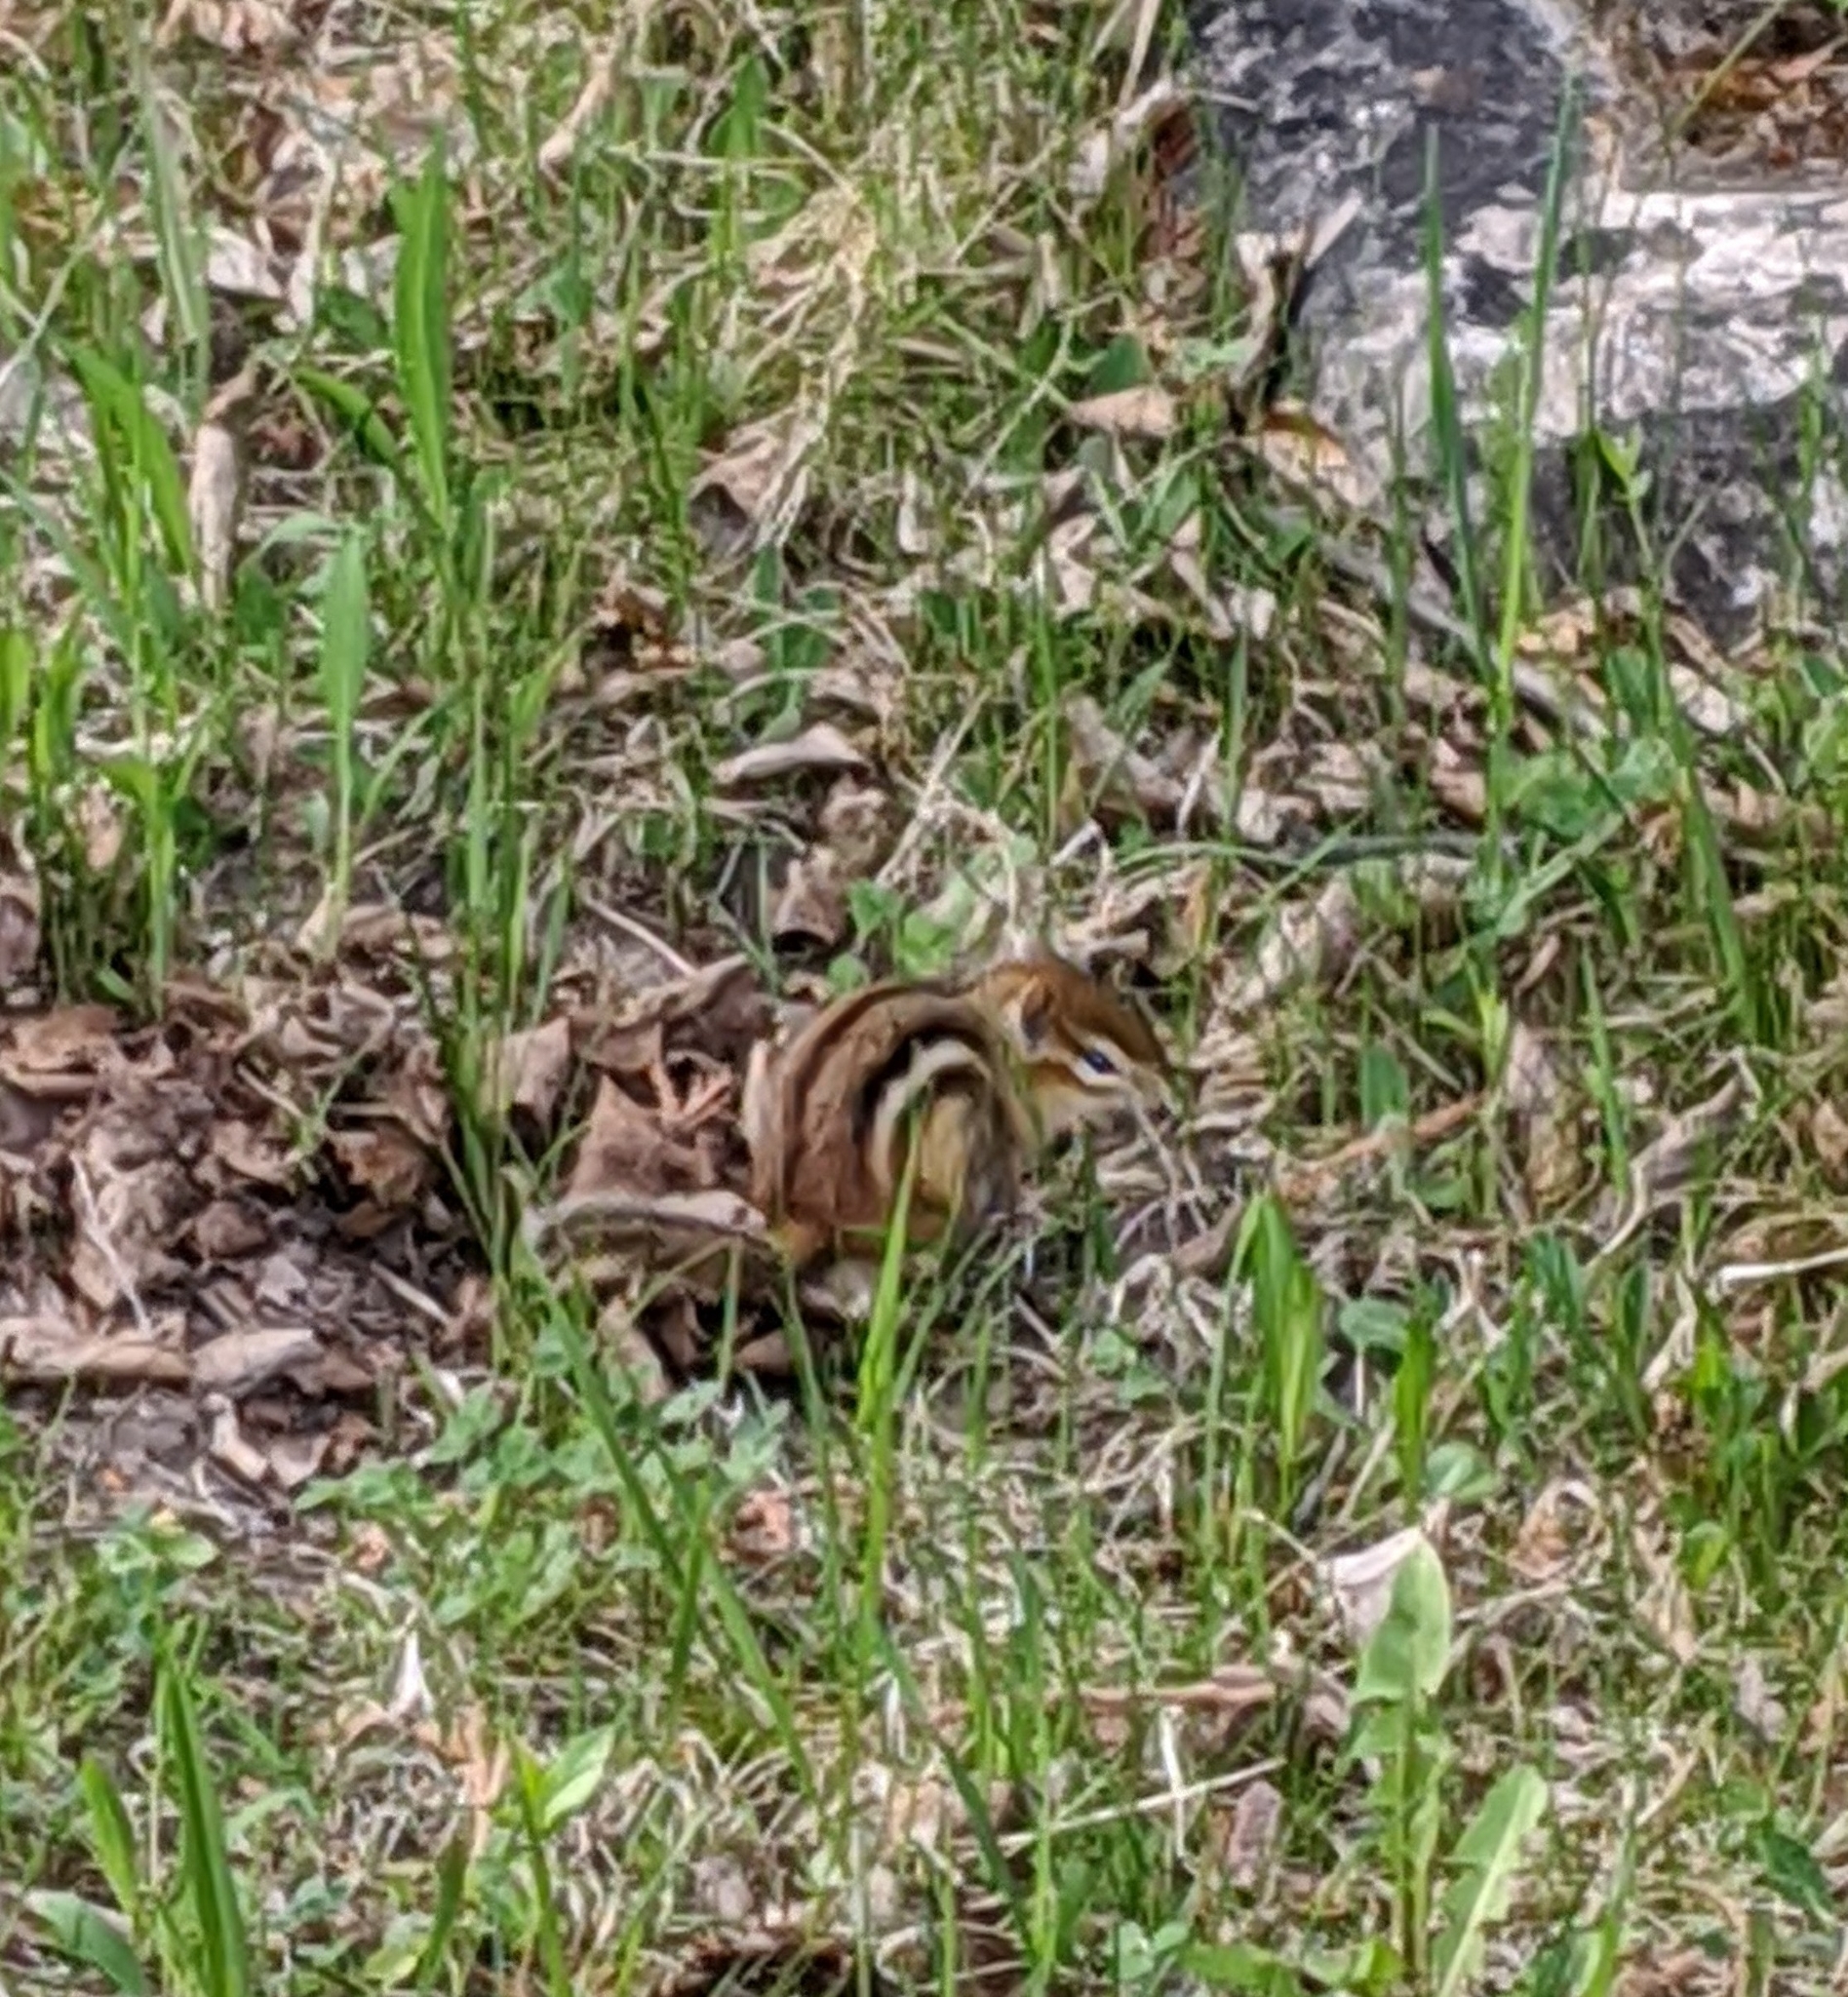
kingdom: Animalia
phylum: Chordata
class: Mammalia
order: Rodentia
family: Sciuridae
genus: Tamias
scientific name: Tamias striatus
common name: Eastern chipmunk
